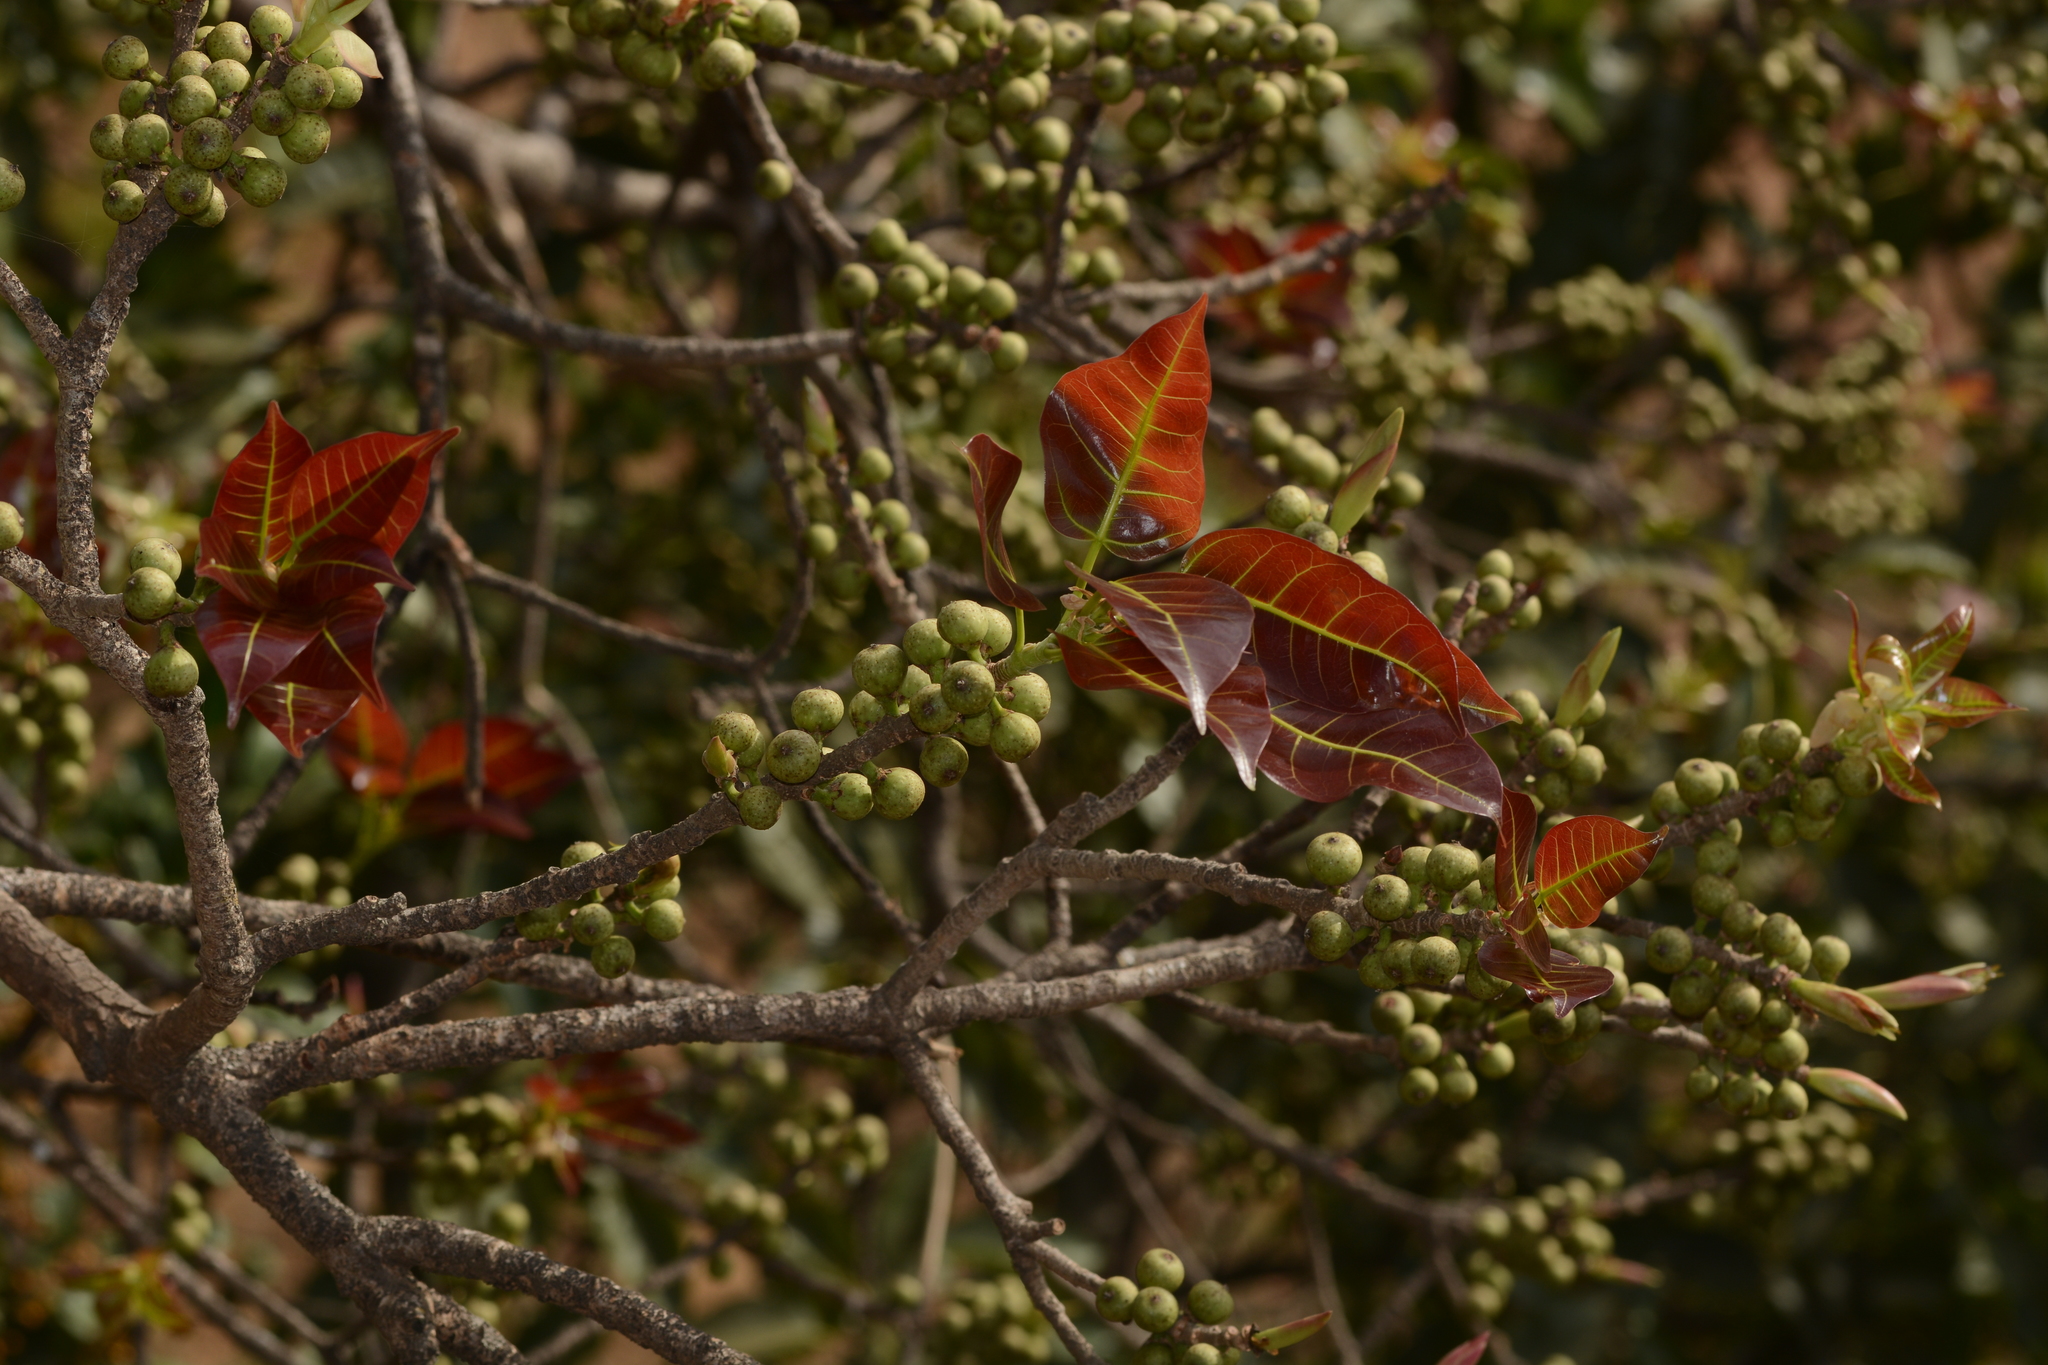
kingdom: Plantae
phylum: Tracheophyta
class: Magnoliopsida
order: Rosales
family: Moraceae
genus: Ficus
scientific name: Ficus virens
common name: Spotted fig
